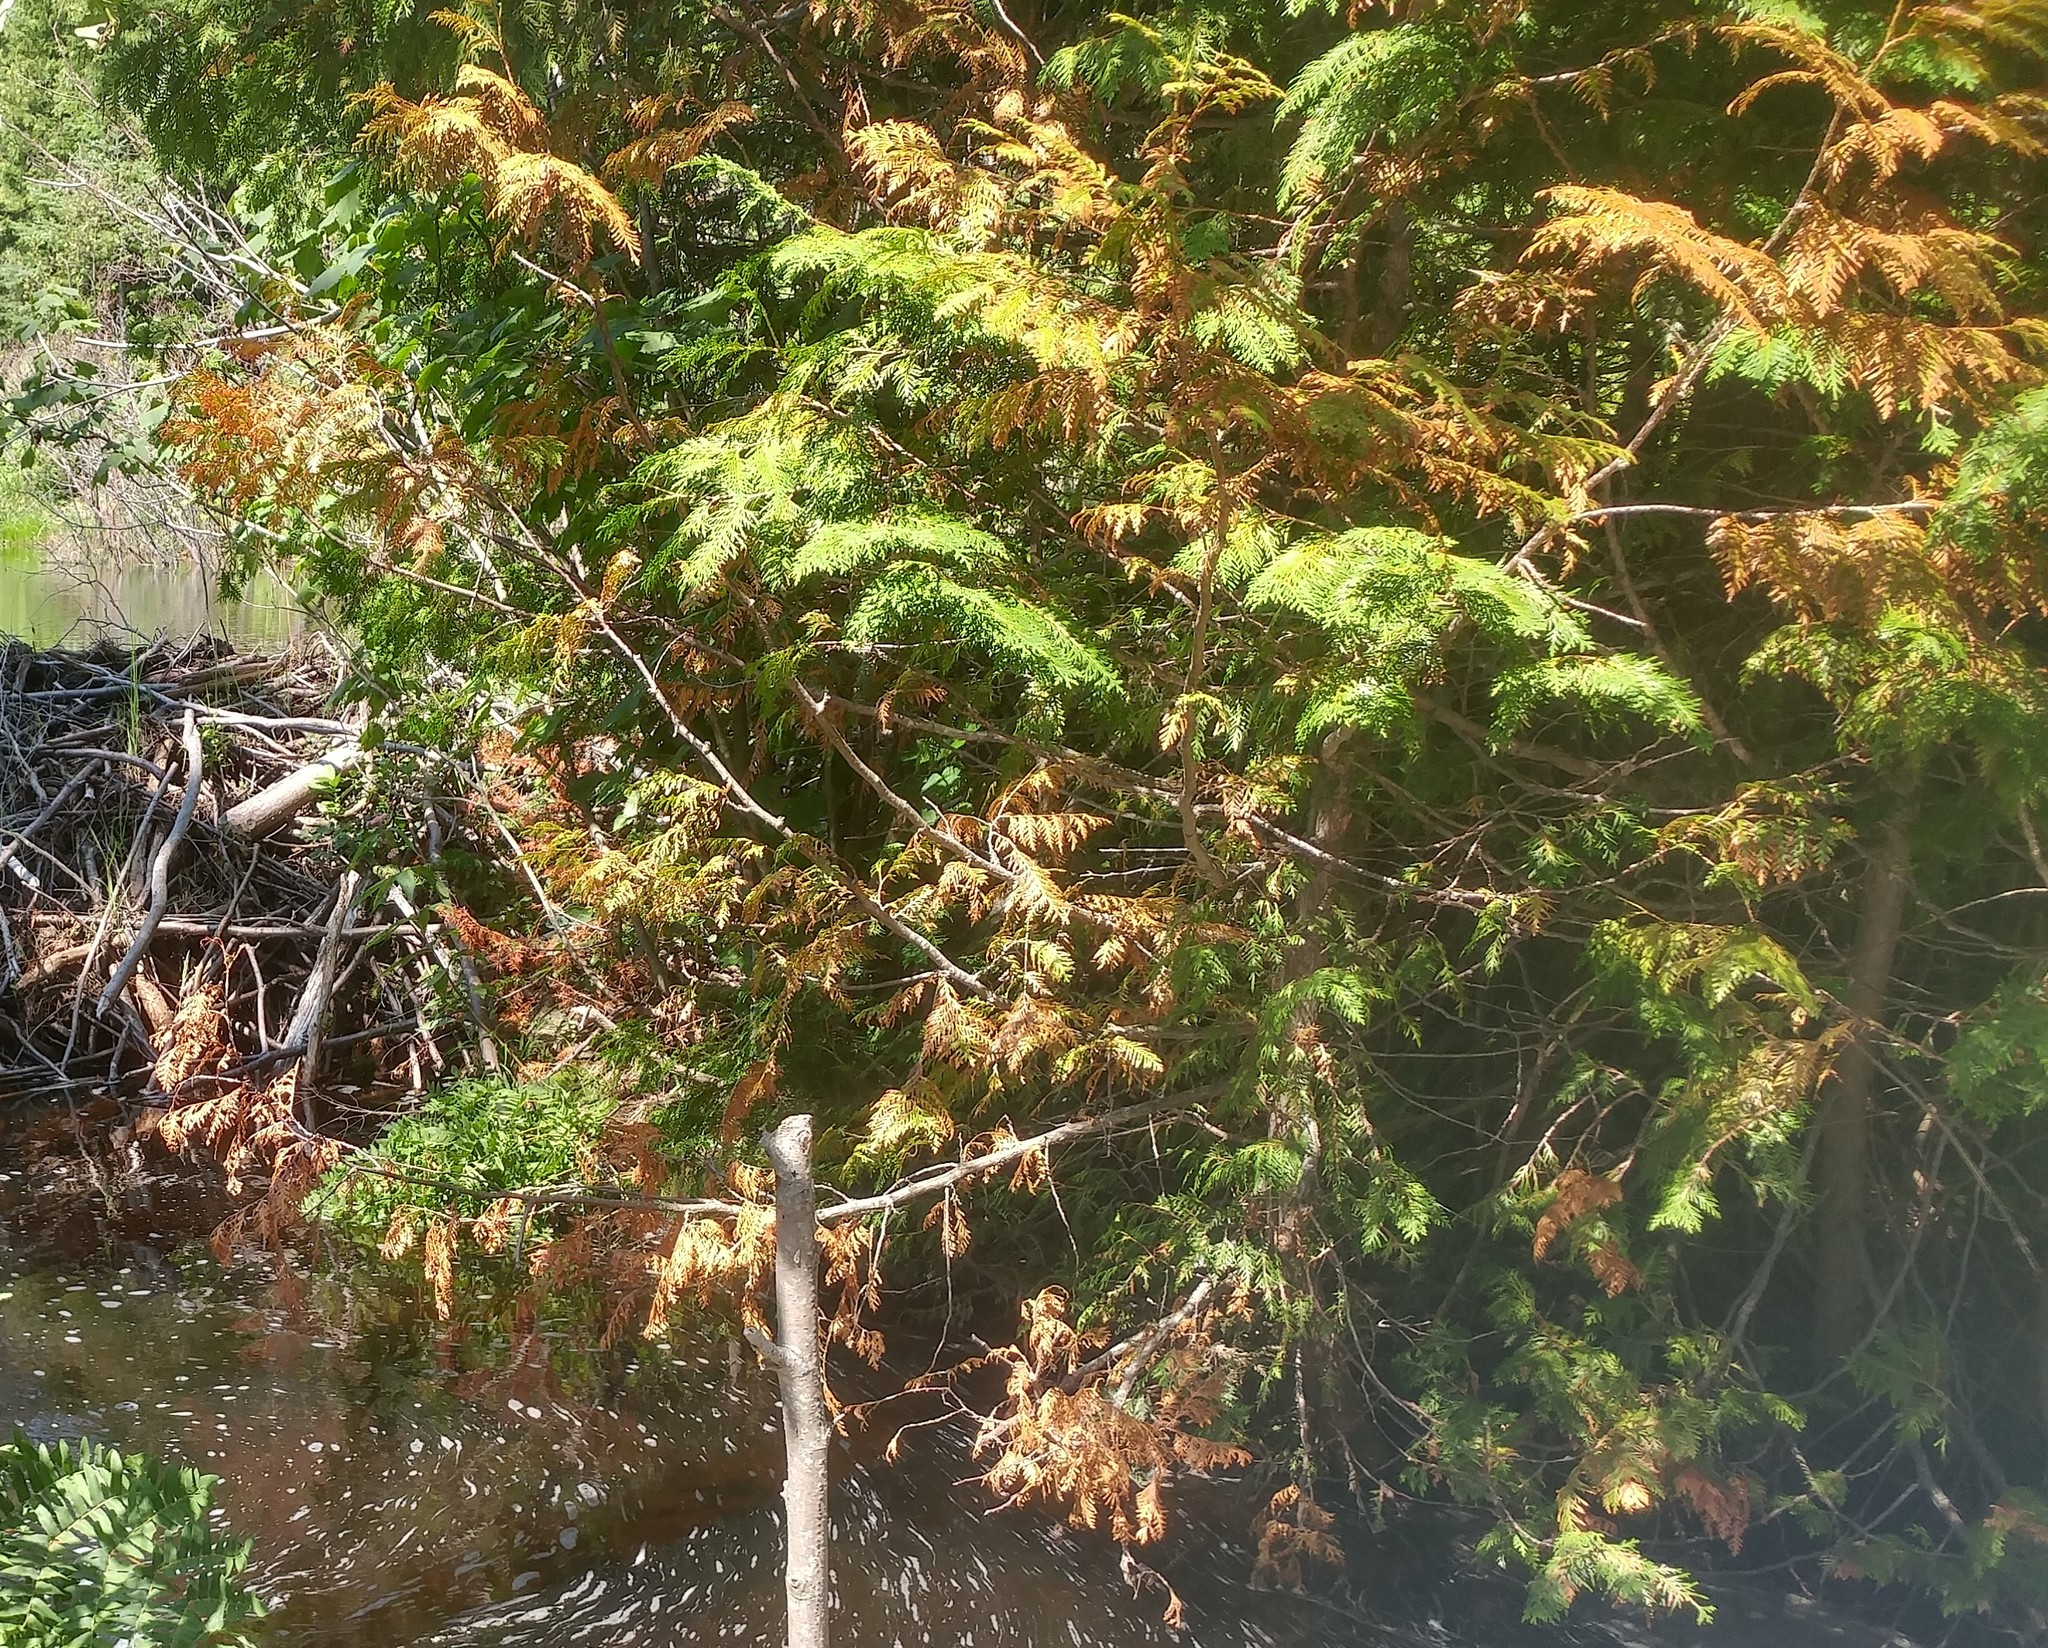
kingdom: Plantae
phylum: Tracheophyta
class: Pinopsida
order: Pinales
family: Cupressaceae
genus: Thuja
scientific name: Thuja occidentalis
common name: Northern white-cedar
